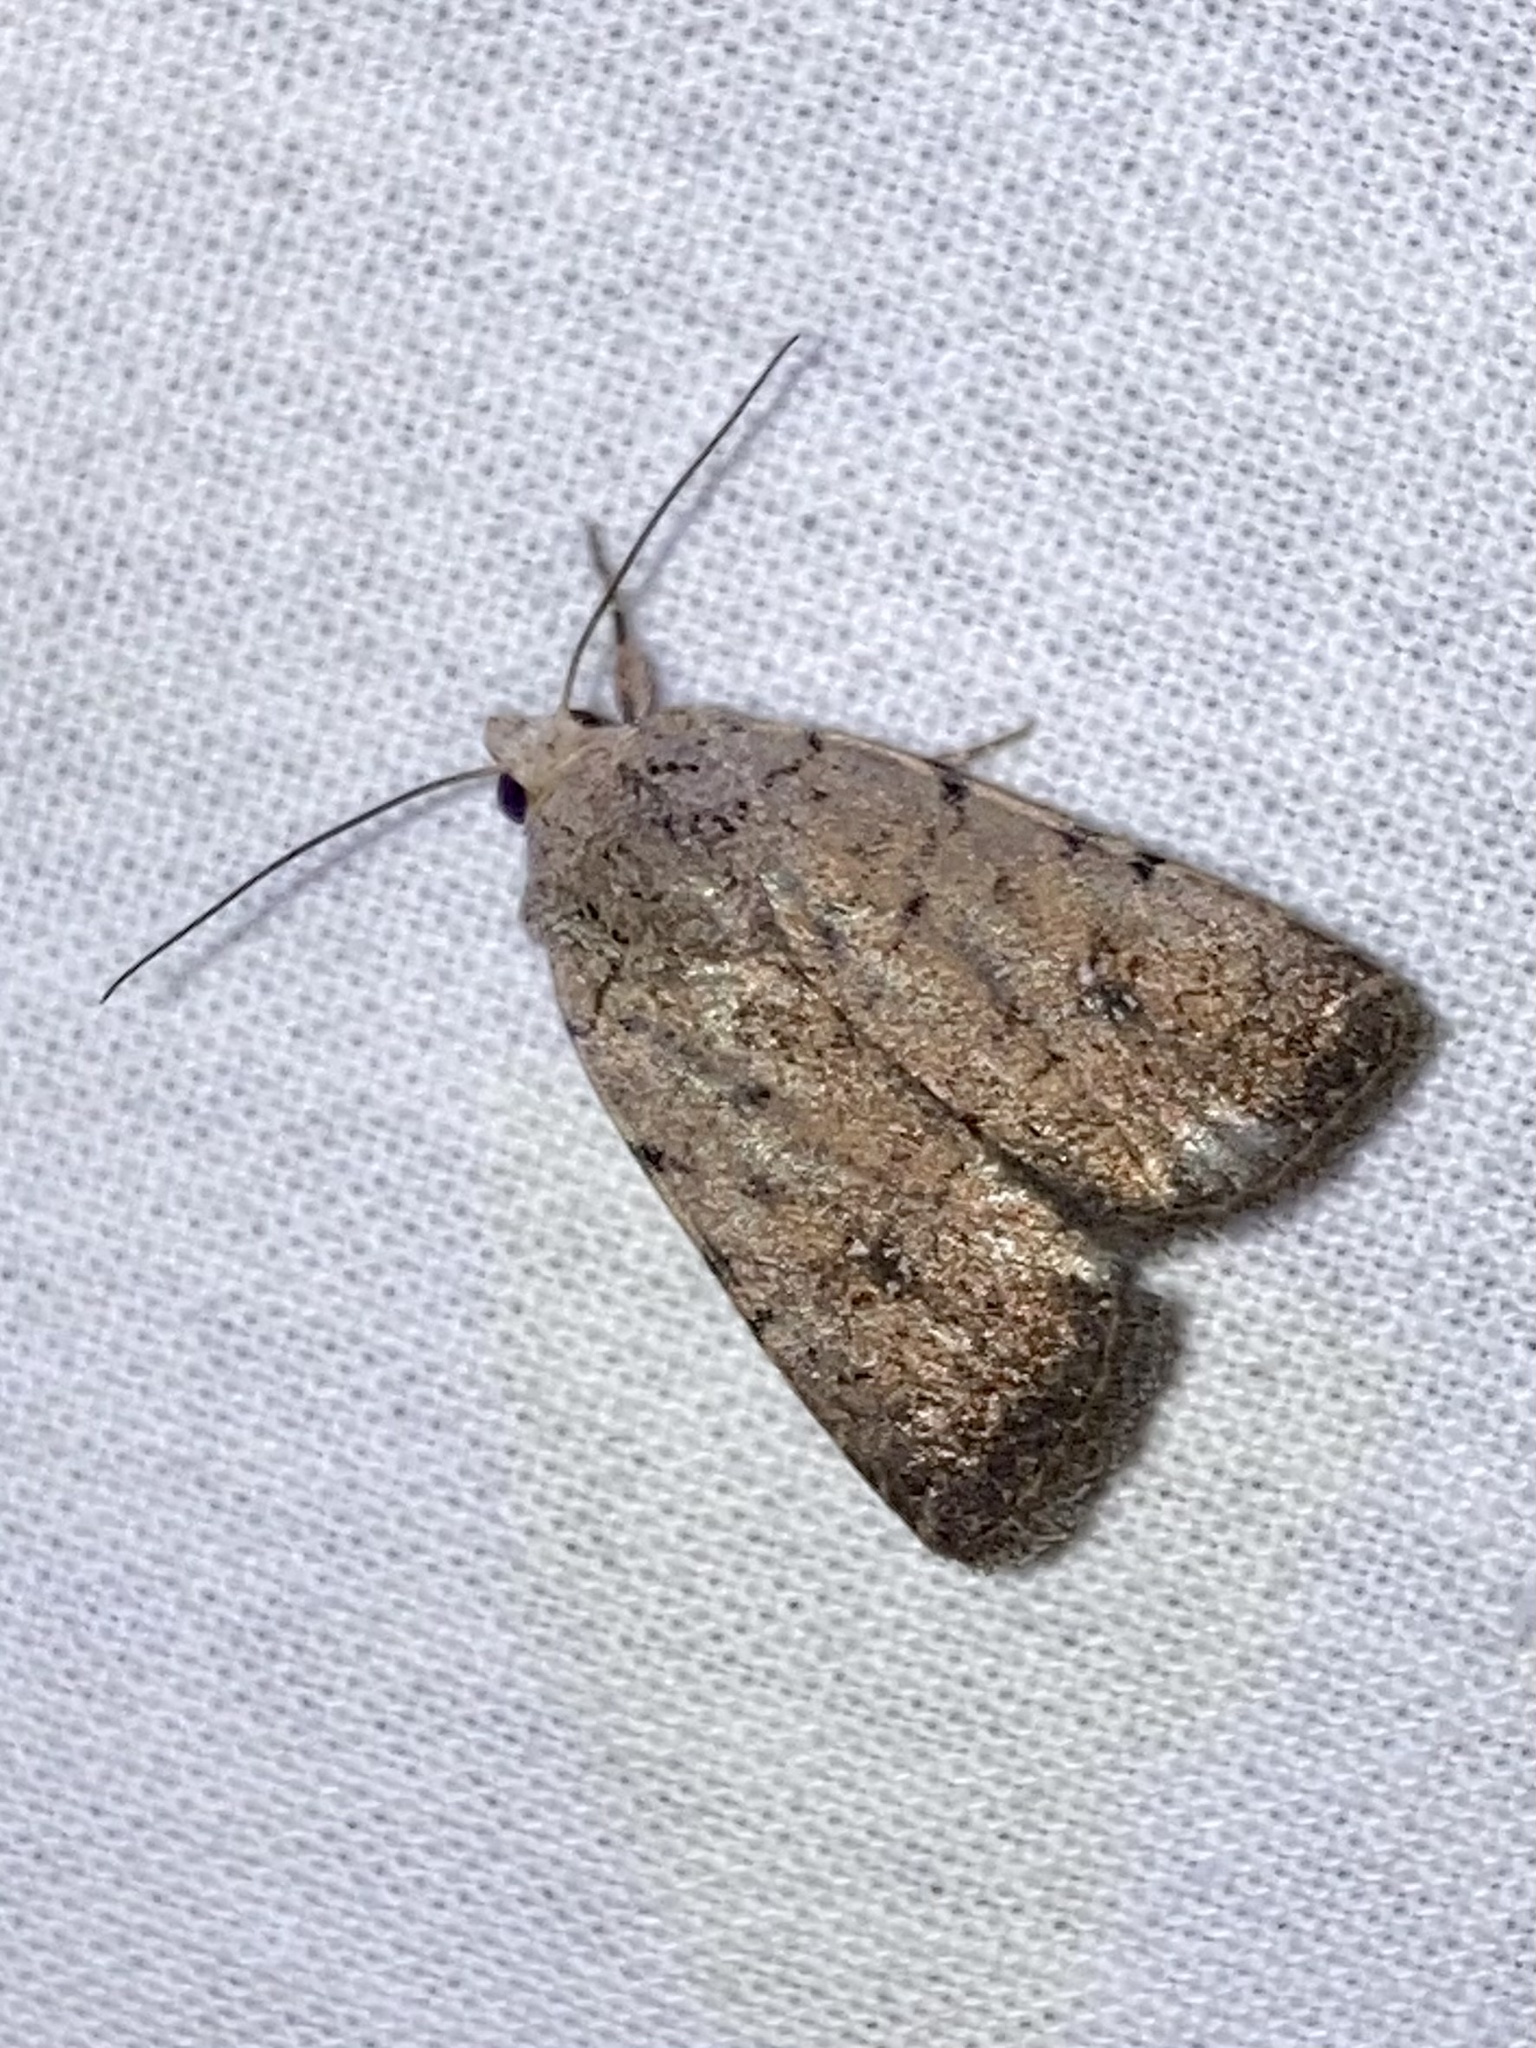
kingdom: Animalia
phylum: Arthropoda
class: Insecta
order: Lepidoptera
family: Noctuidae
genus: Caradrina
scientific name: Caradrina clavipalpis
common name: Pale mottled willow
